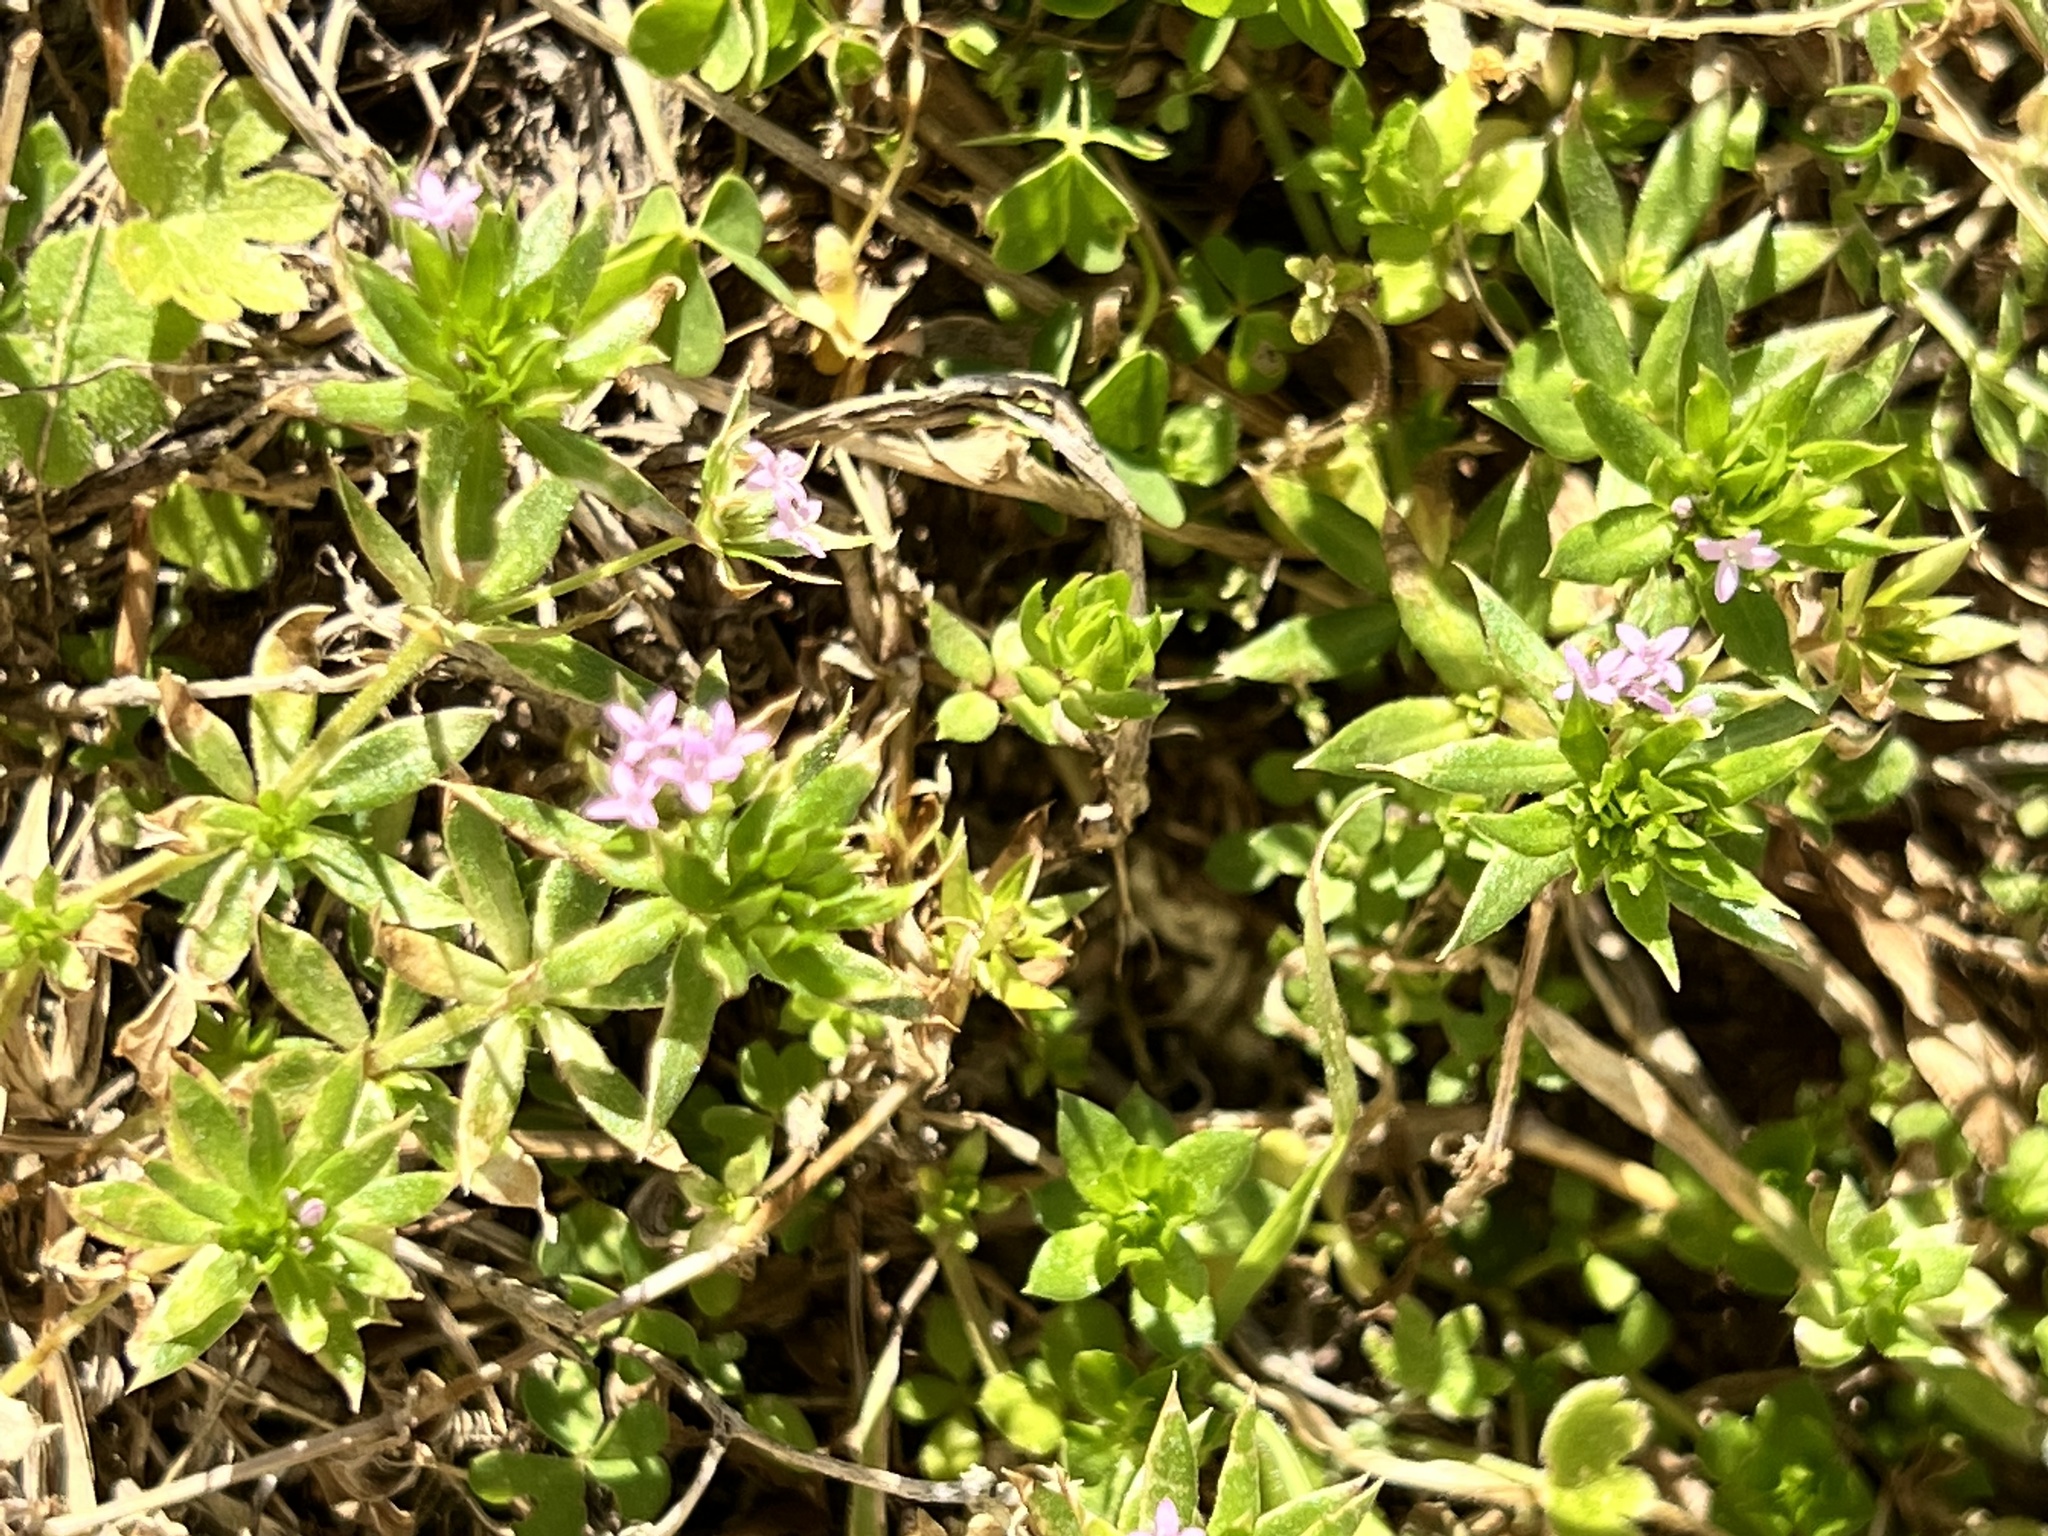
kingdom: Plantae
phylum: Tracheophyta
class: Magnoliopsida
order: Gentianales
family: Rubiaceae
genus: Sherardia
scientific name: Sherardia arvensis
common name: Field madder
